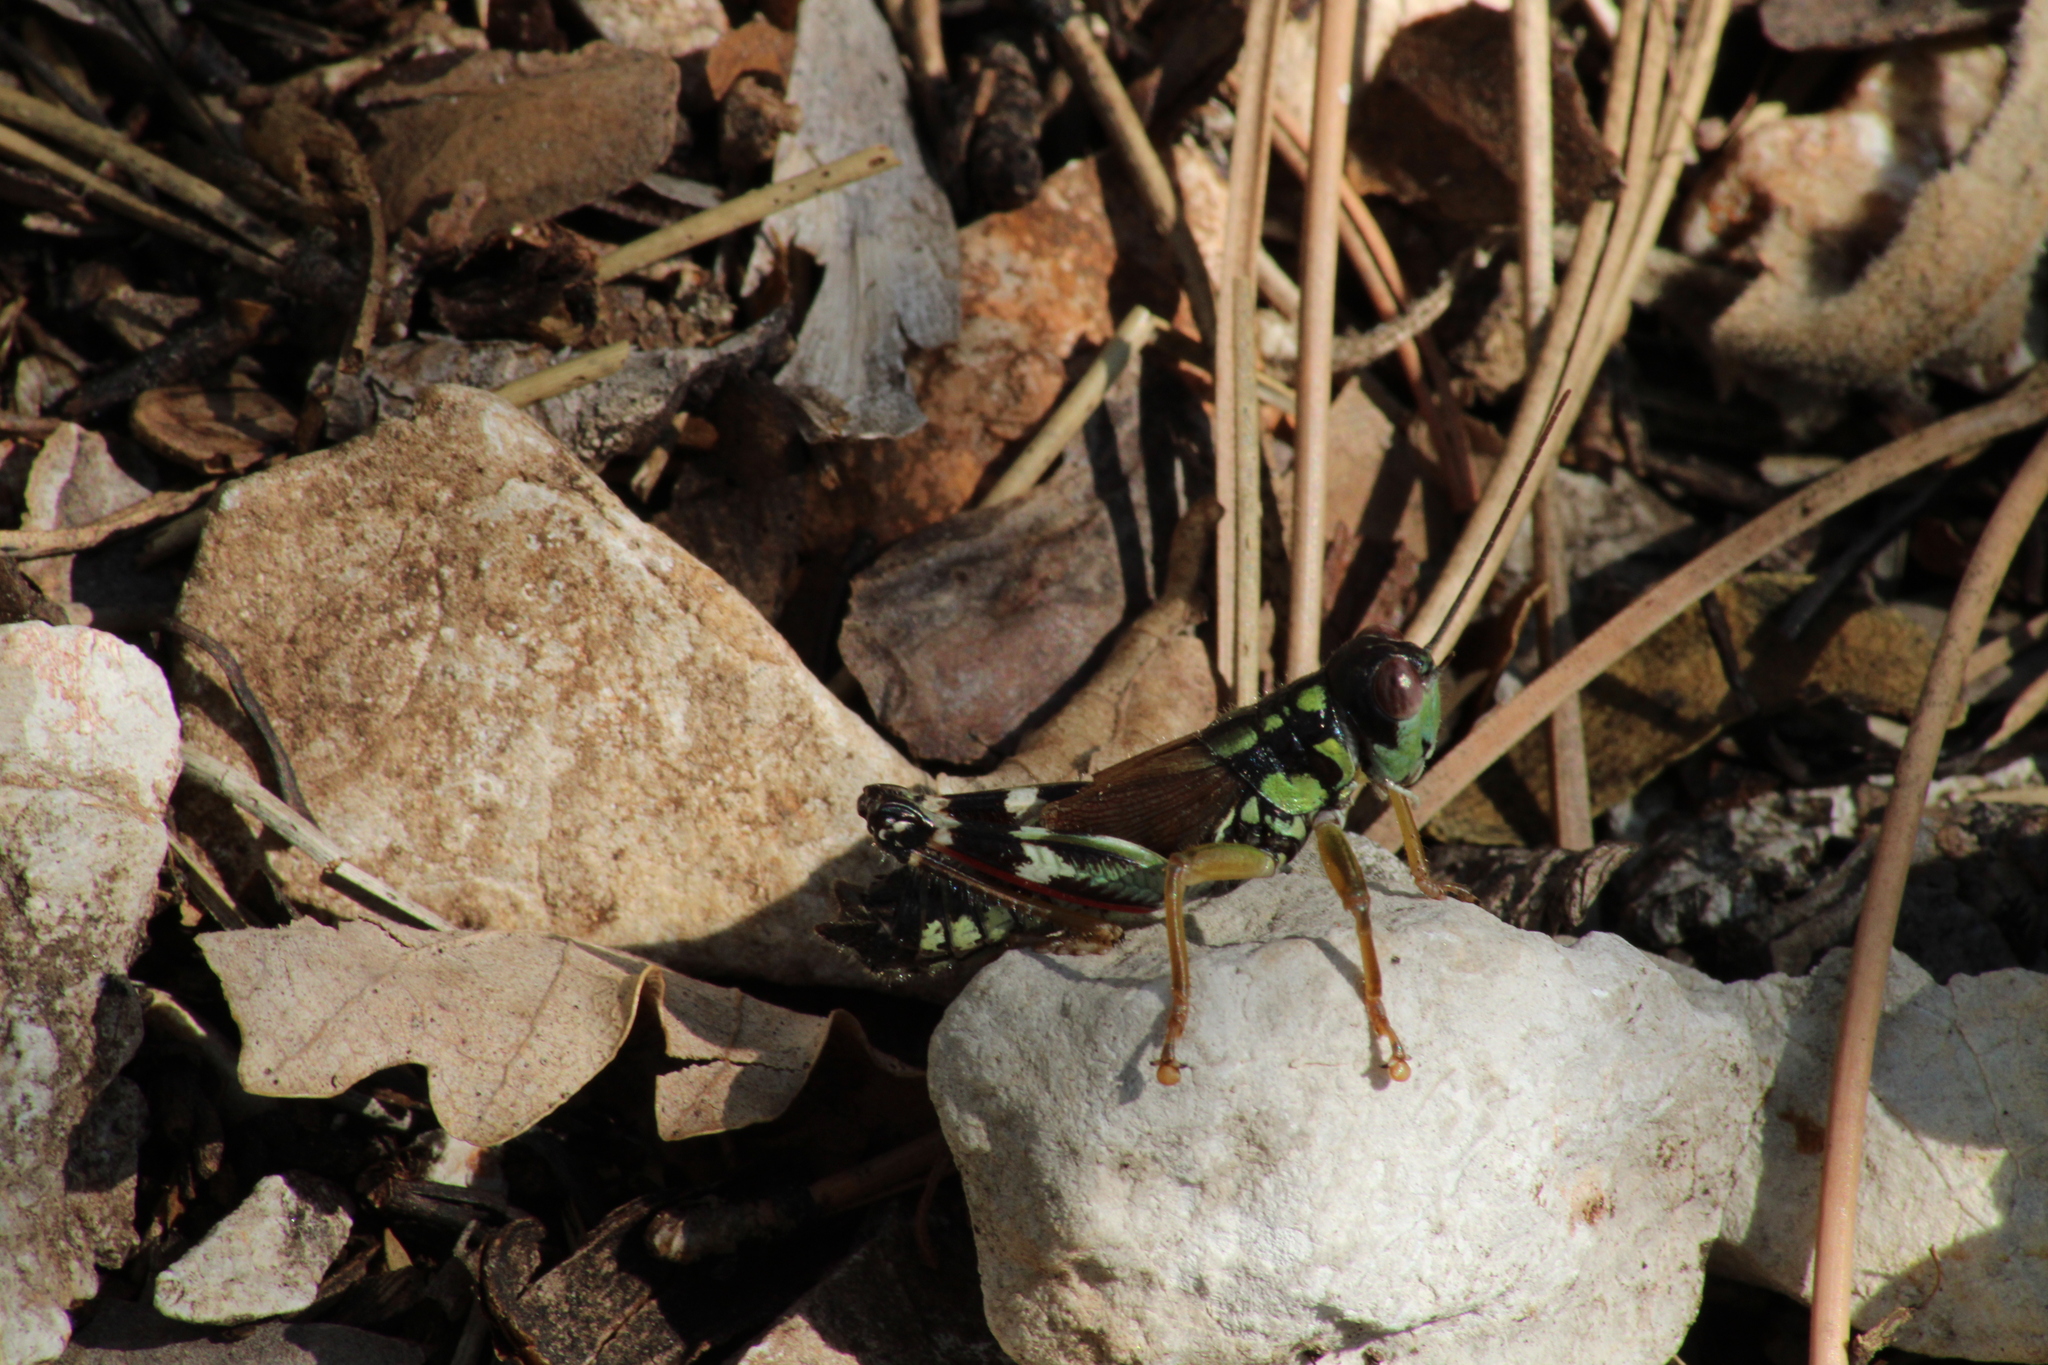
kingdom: Animalia
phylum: Arthropoda
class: Insecta
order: Orthoptera
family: Acrididae
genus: Miramella
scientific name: Miramella alpina
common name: Green mountain grasshopper
